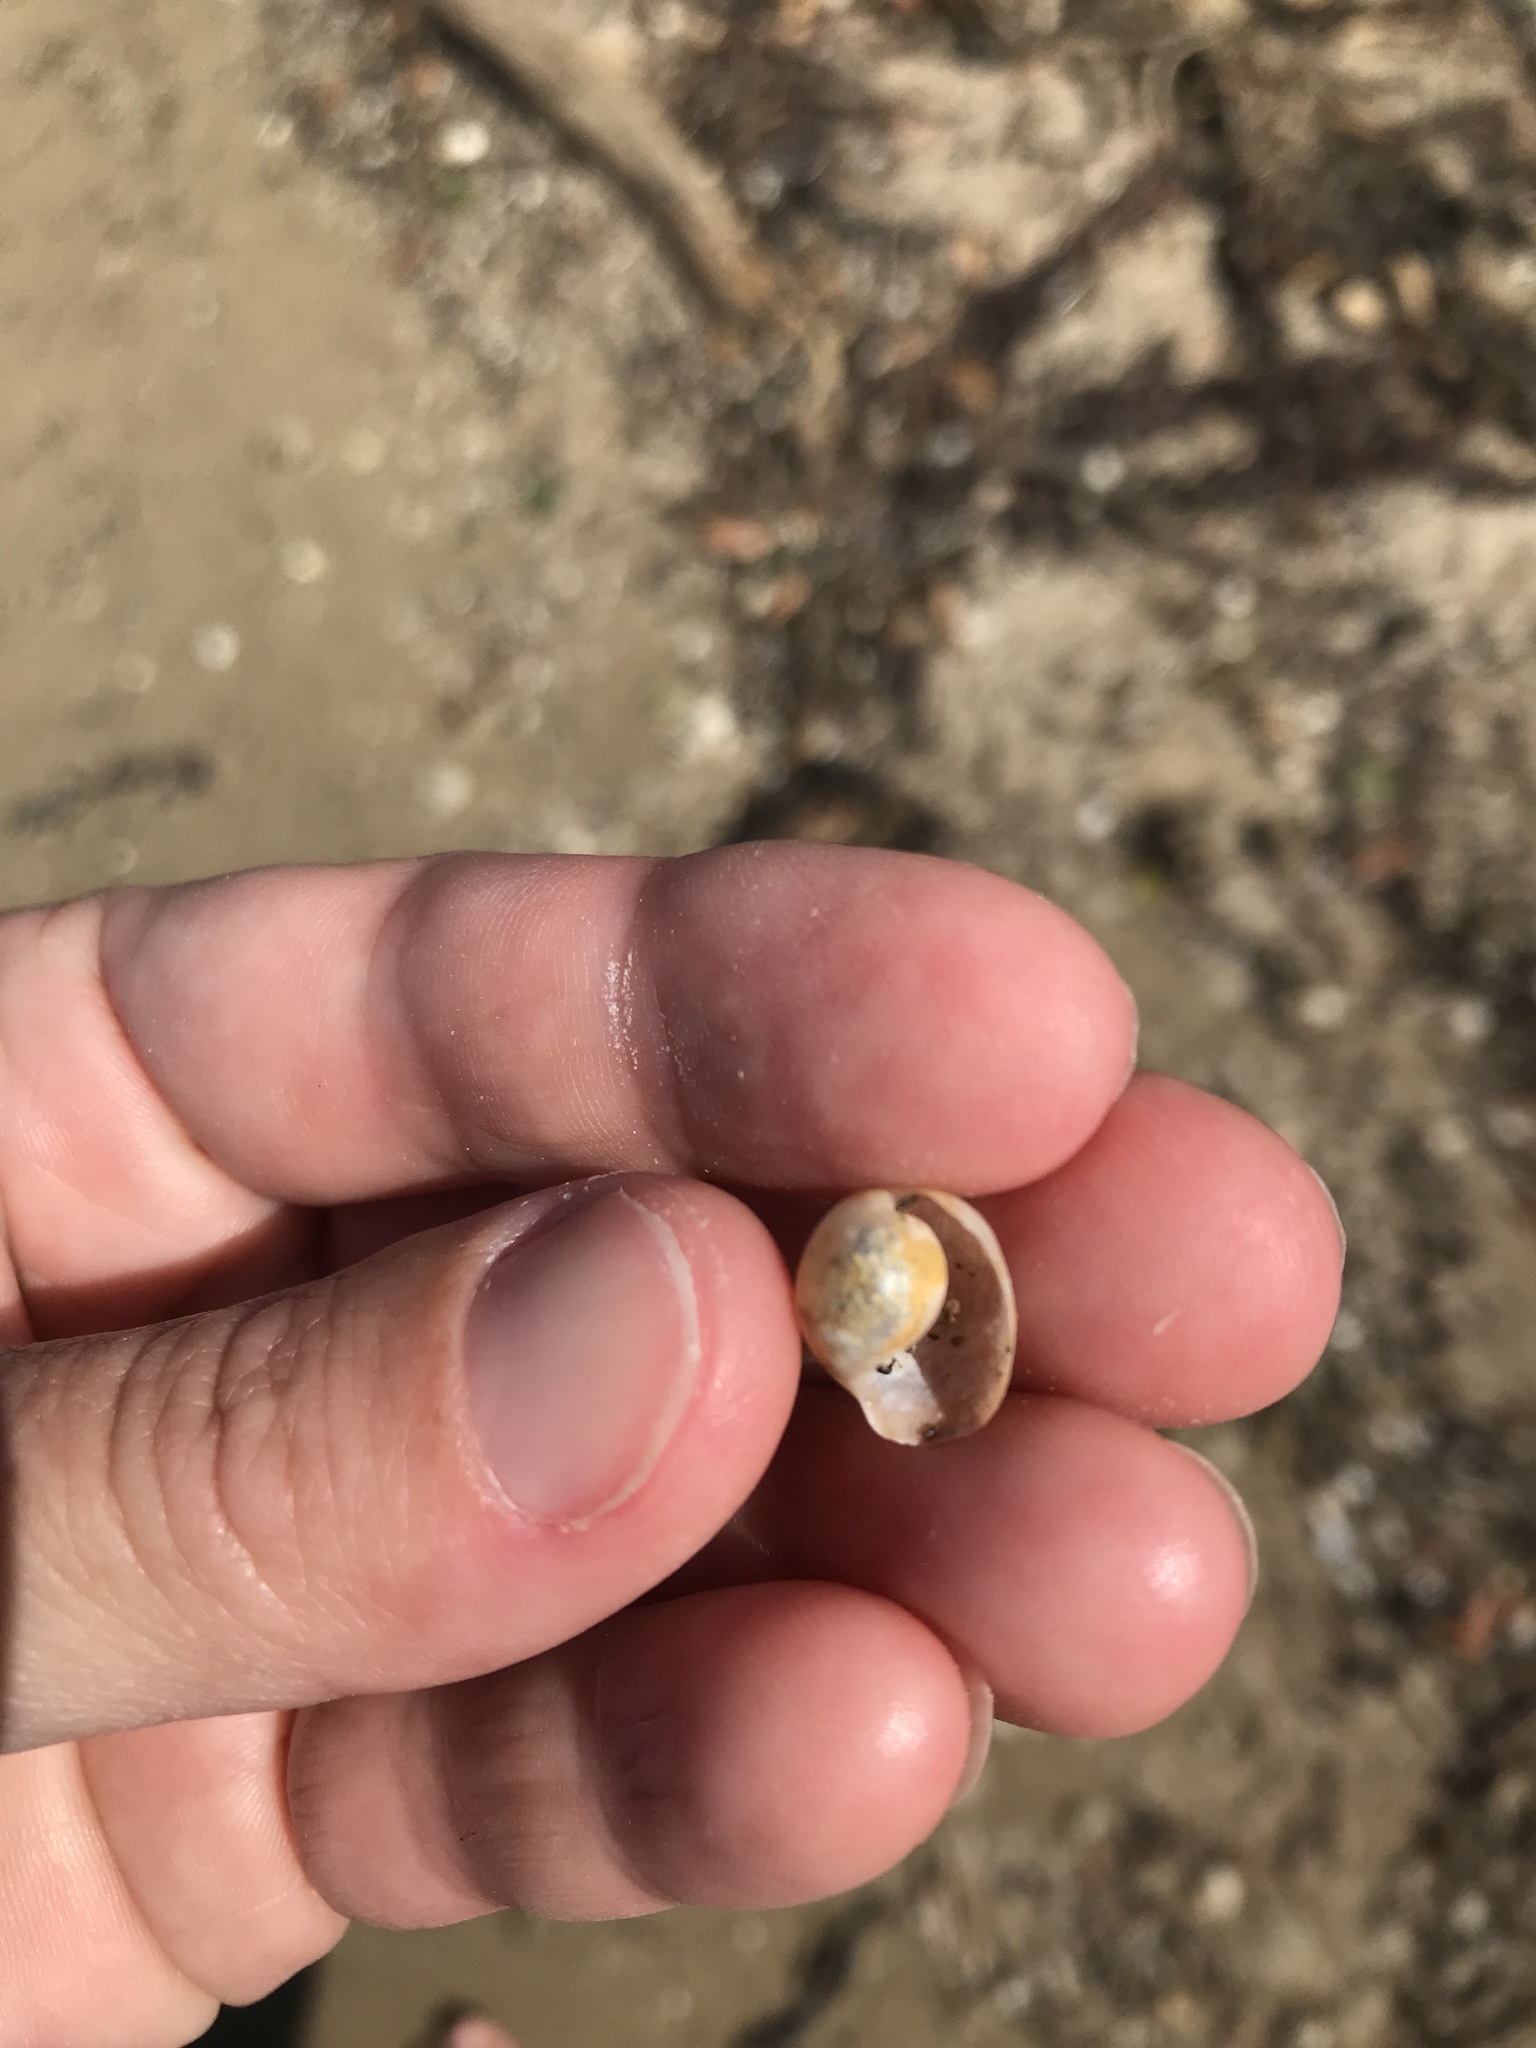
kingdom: Animalia
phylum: Mollusca
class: Gastropoda
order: Cephalaspidea
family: Haminoeidae
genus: Papawera
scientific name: Papawera zelandiae
